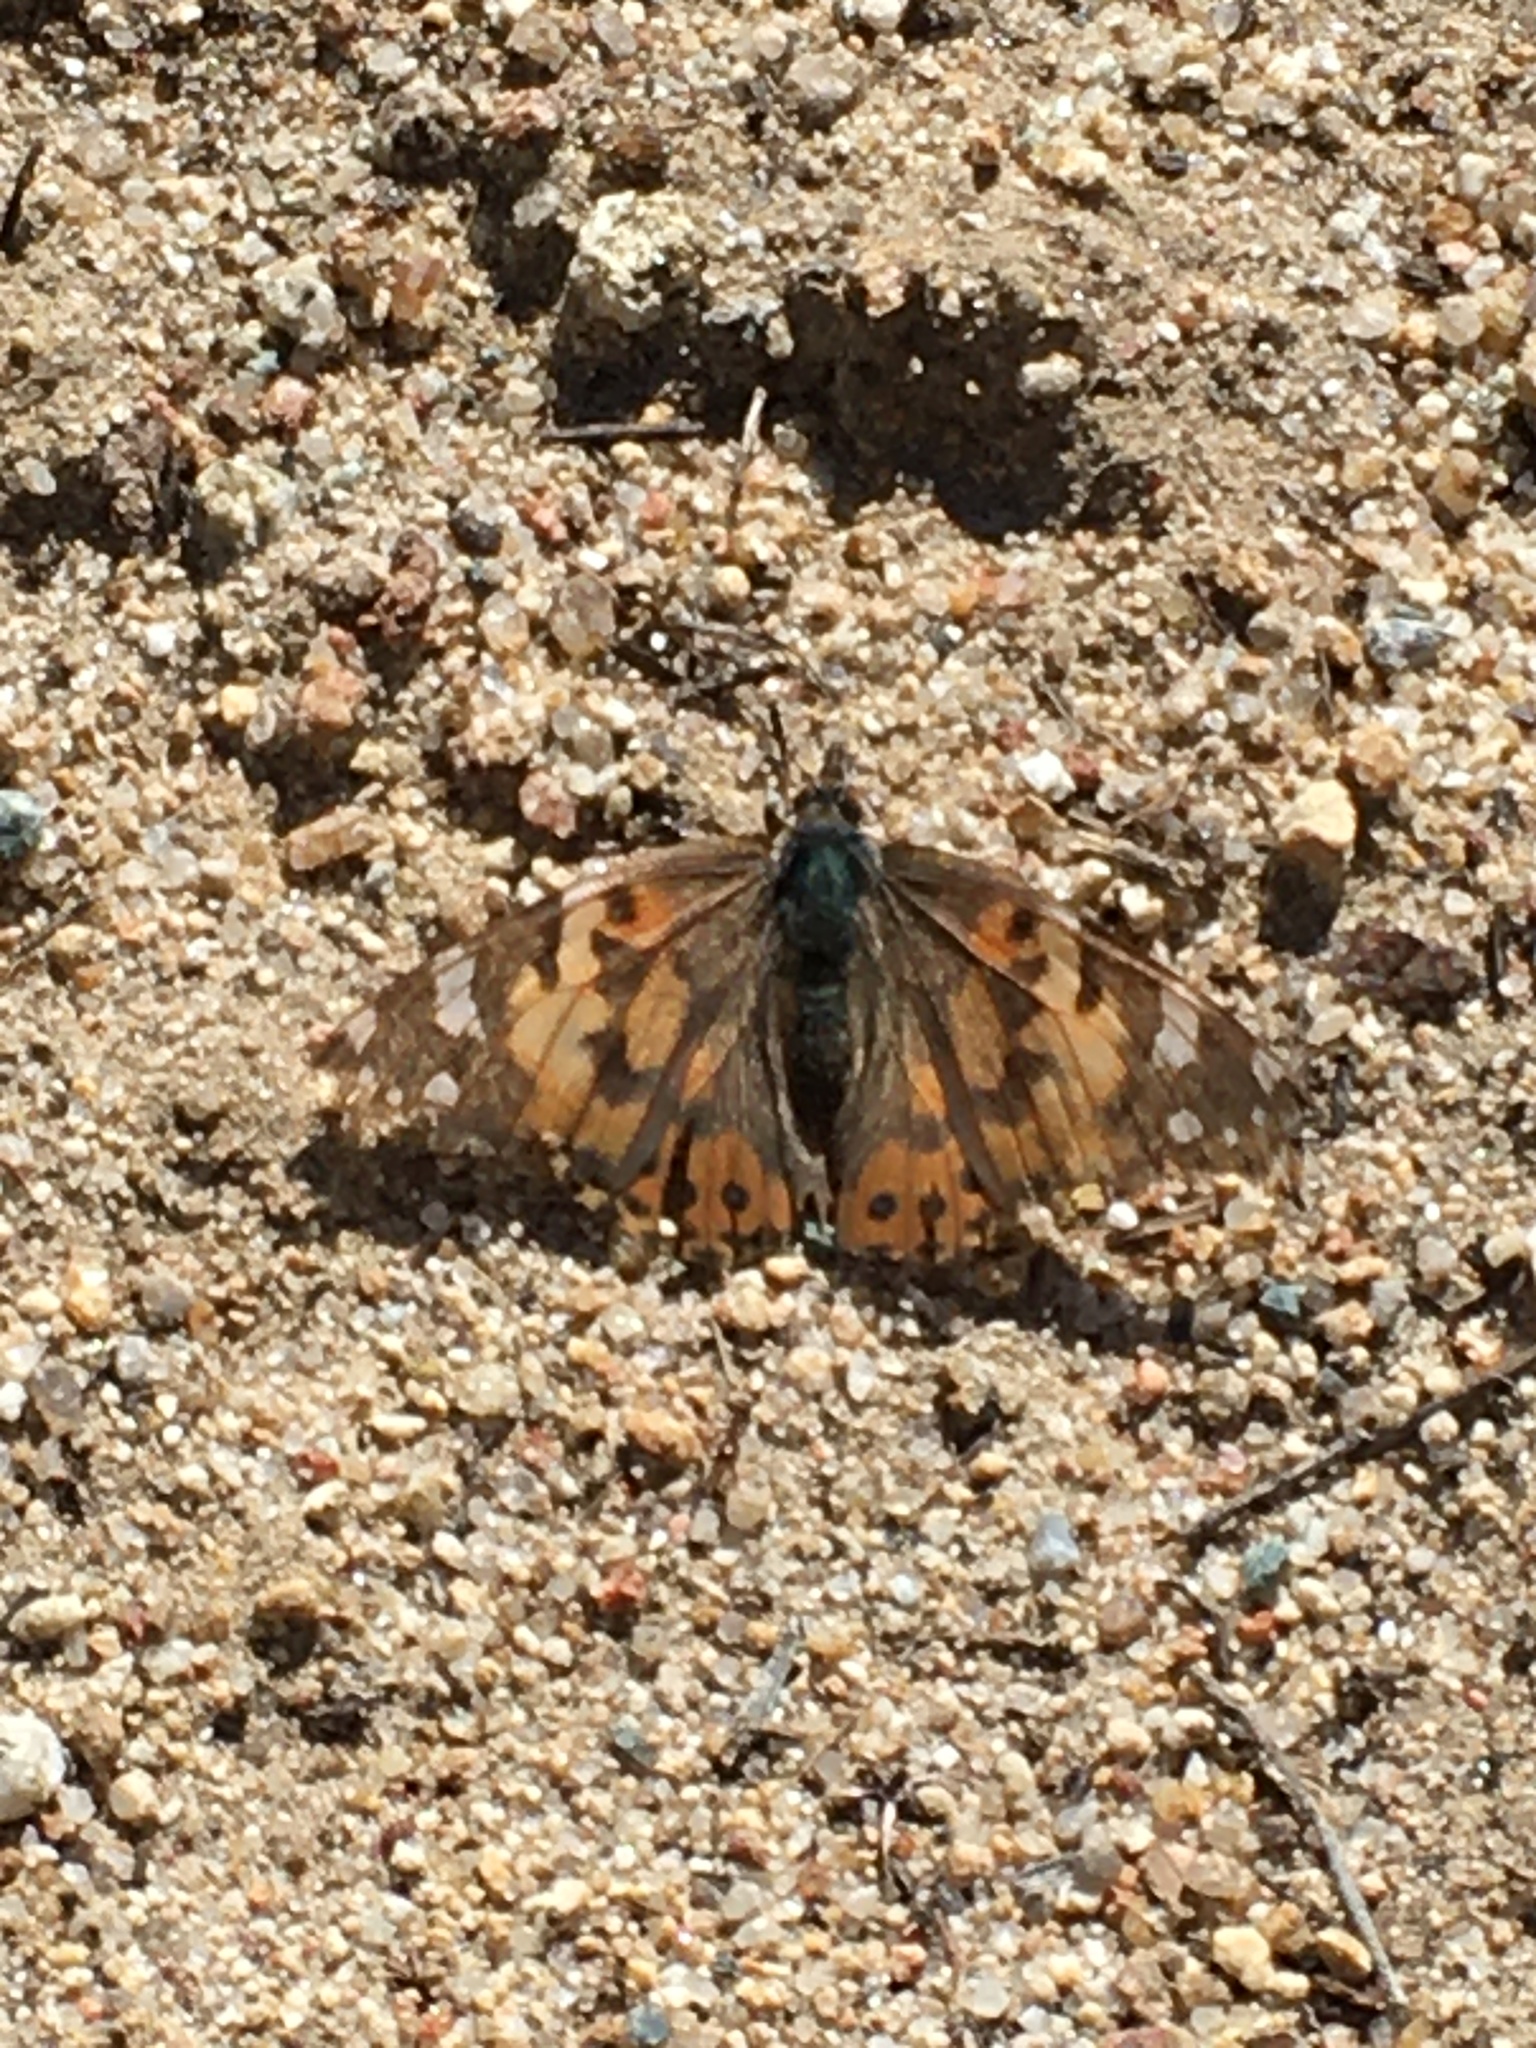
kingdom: Animalia
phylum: Arthropoda
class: Insecta
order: Lepidoptera
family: Nymphalidae
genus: Vanessa
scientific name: Vanessa cardui
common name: Painted lady
